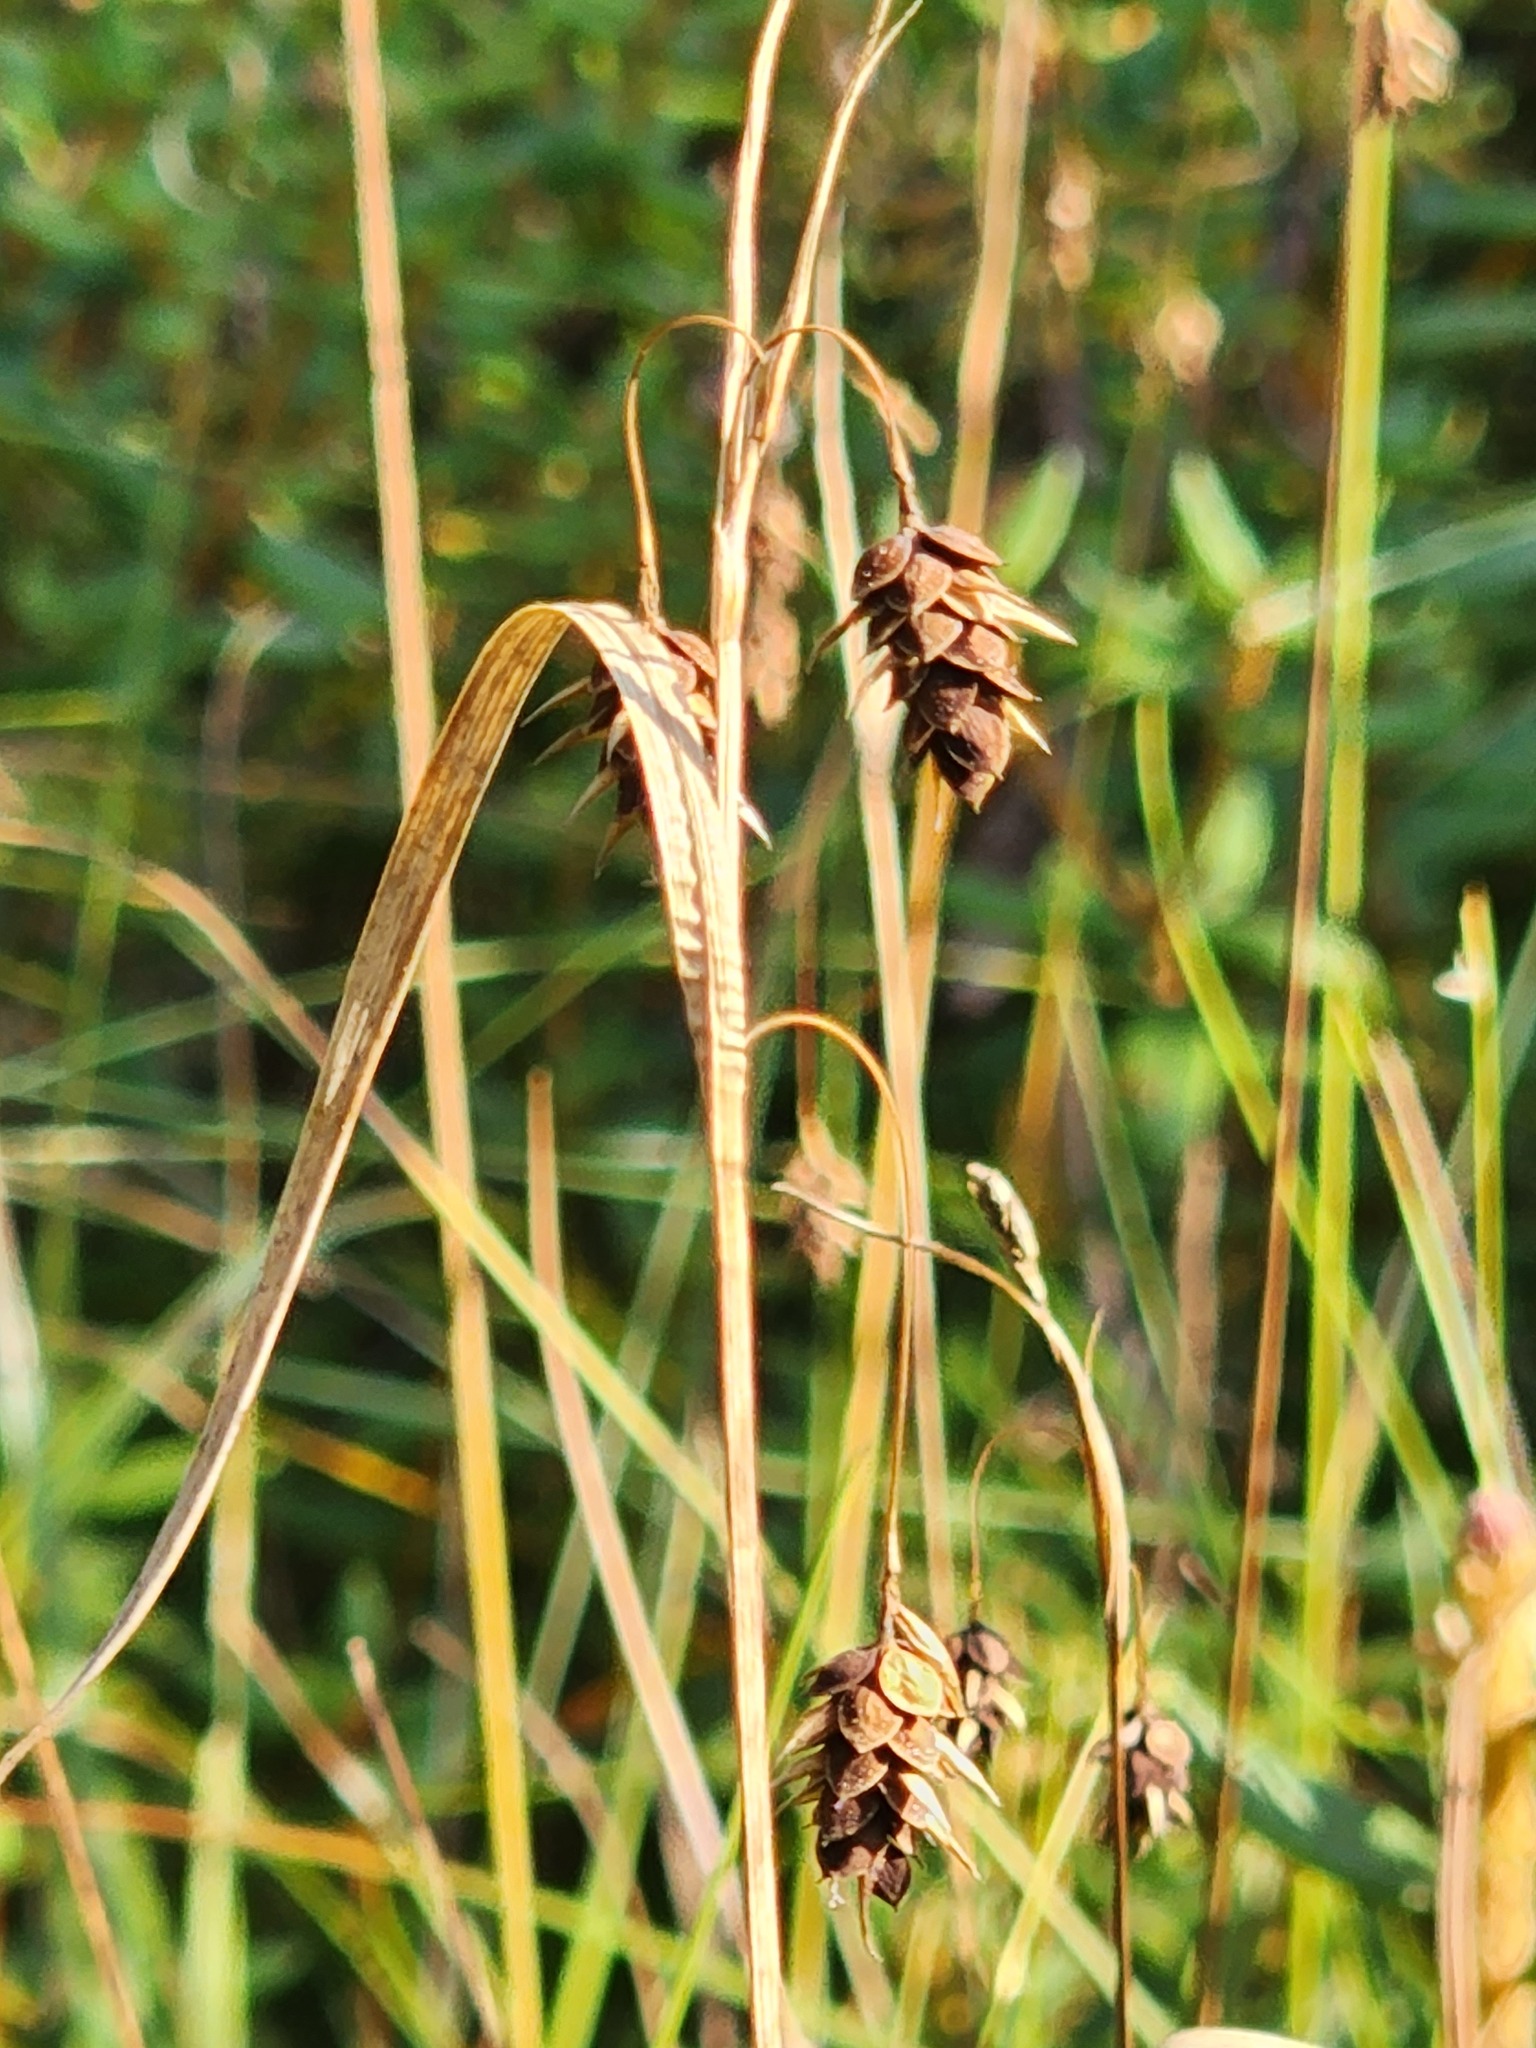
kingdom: Plantae
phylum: Tracheophyta
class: Liliopsida
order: Poales
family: Cyperaceae
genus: Carex
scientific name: Carex magellanica
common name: Bog sedge
